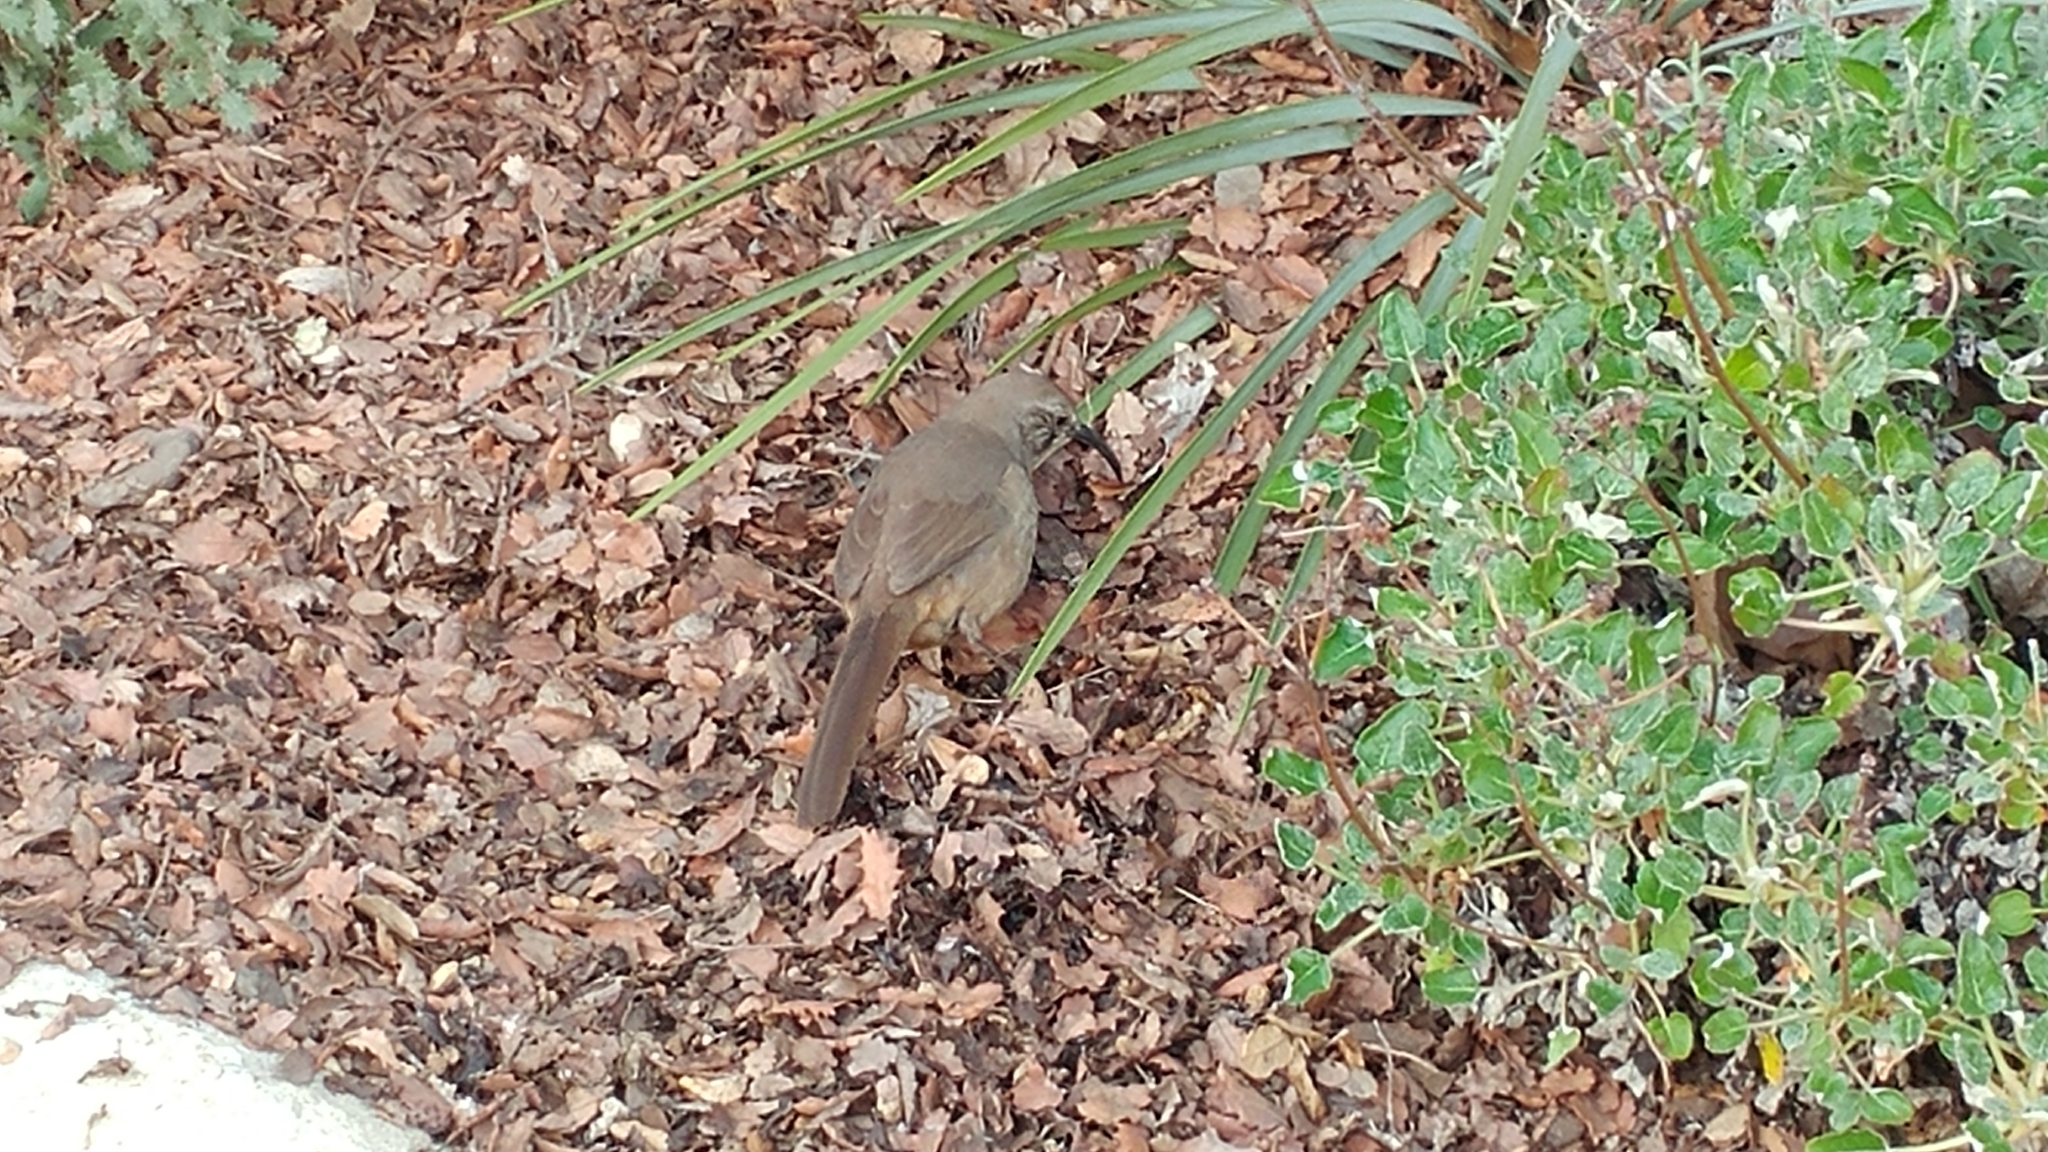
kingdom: Animalia
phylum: Chordata
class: Aves
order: Passeriformes
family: Mimidae
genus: Toxostoma
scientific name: Toxostoma redivivum
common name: California thrasher
